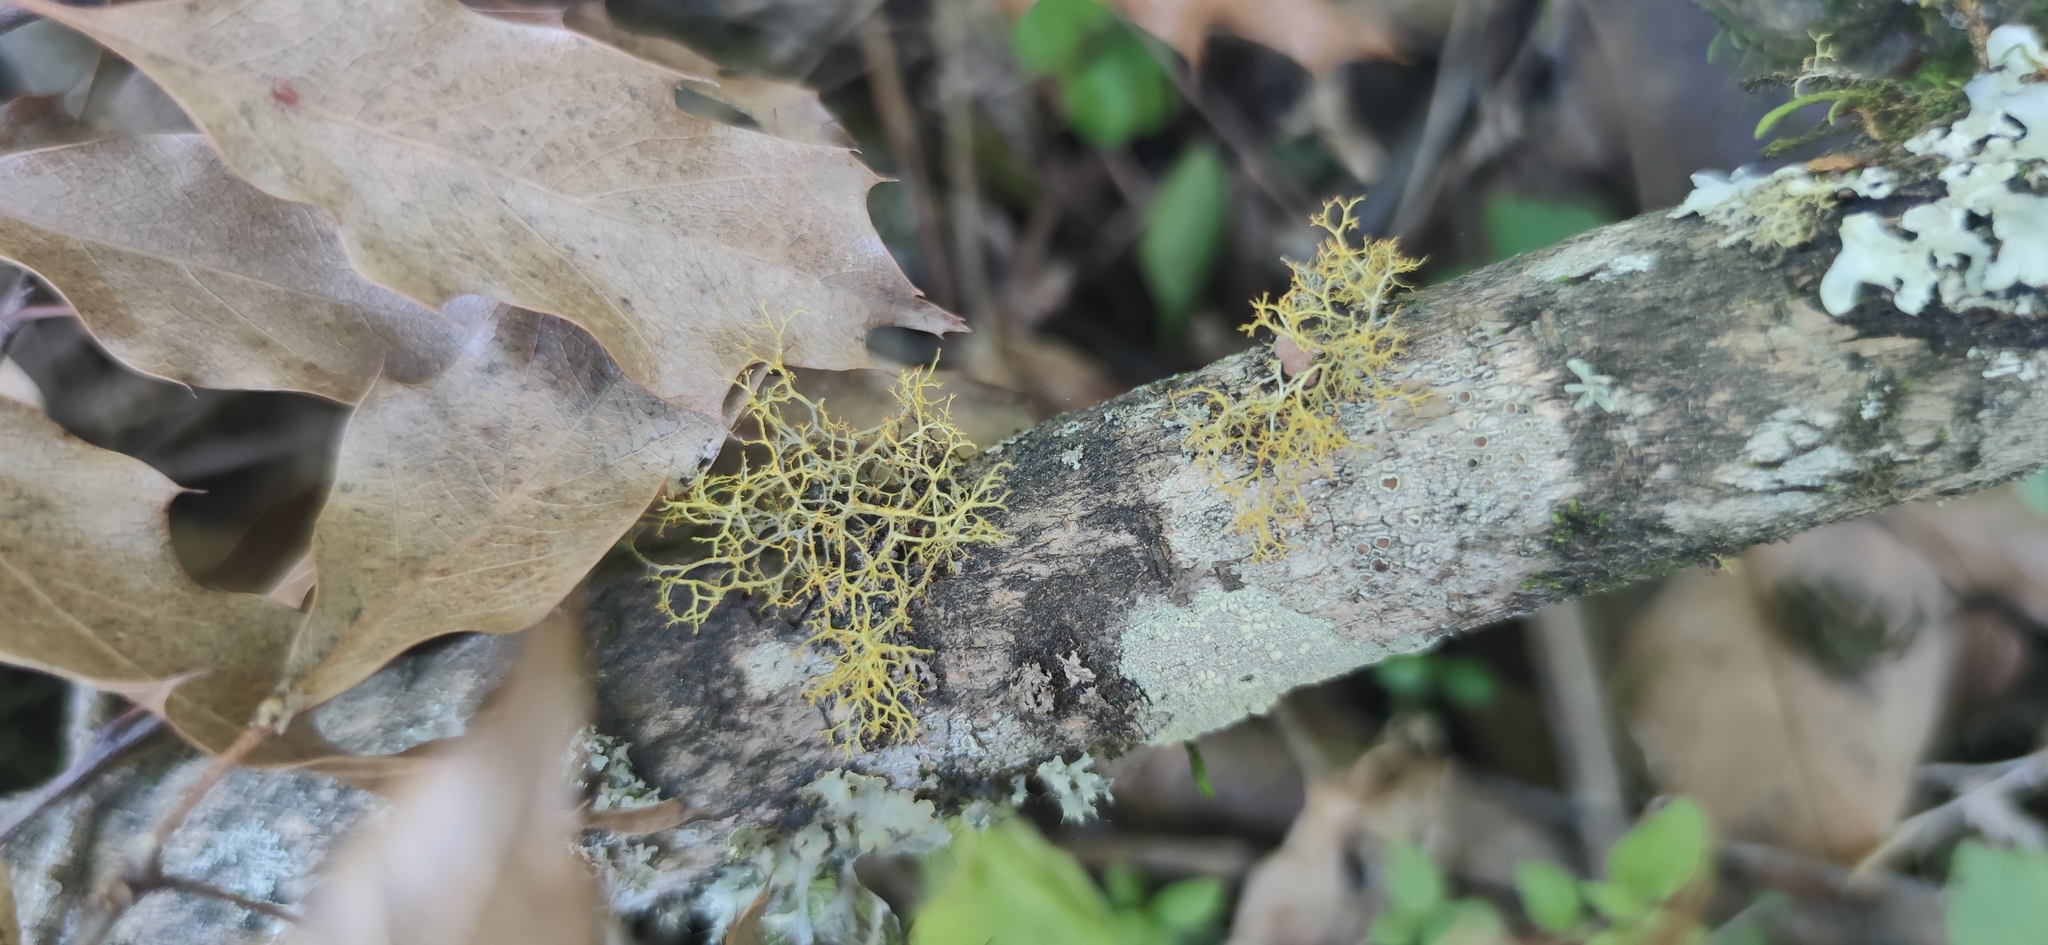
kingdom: Fungi
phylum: Ascomycota
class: Lecanoromycetes
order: Teloschistales
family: Teloschistaceae
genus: Teloschistes
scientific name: Teloschistes exilis
